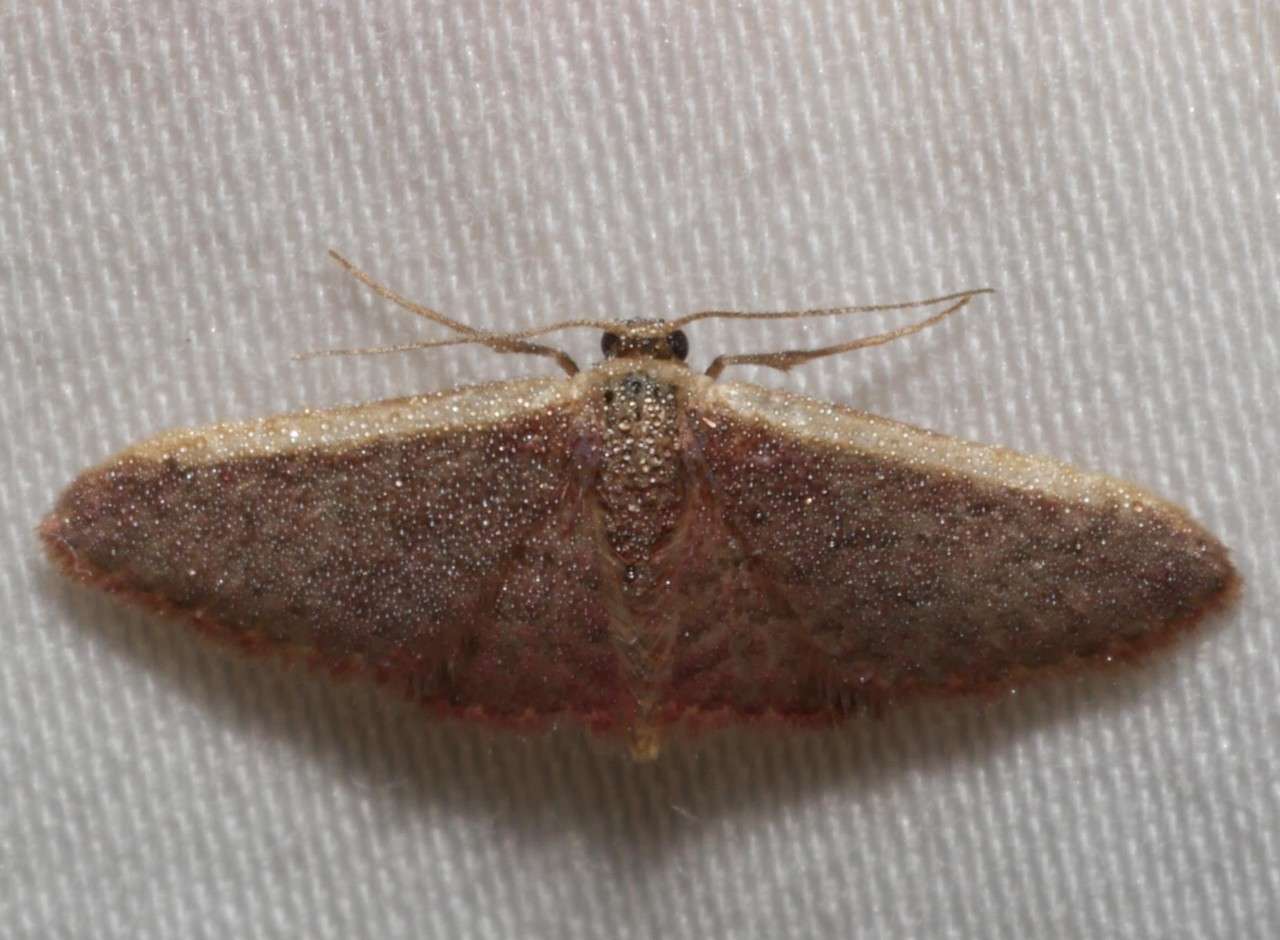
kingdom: Animalia
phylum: Arthropoda
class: Insecta
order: Lepidoptera
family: Geometridae
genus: Idaea
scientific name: Idaea costaria
